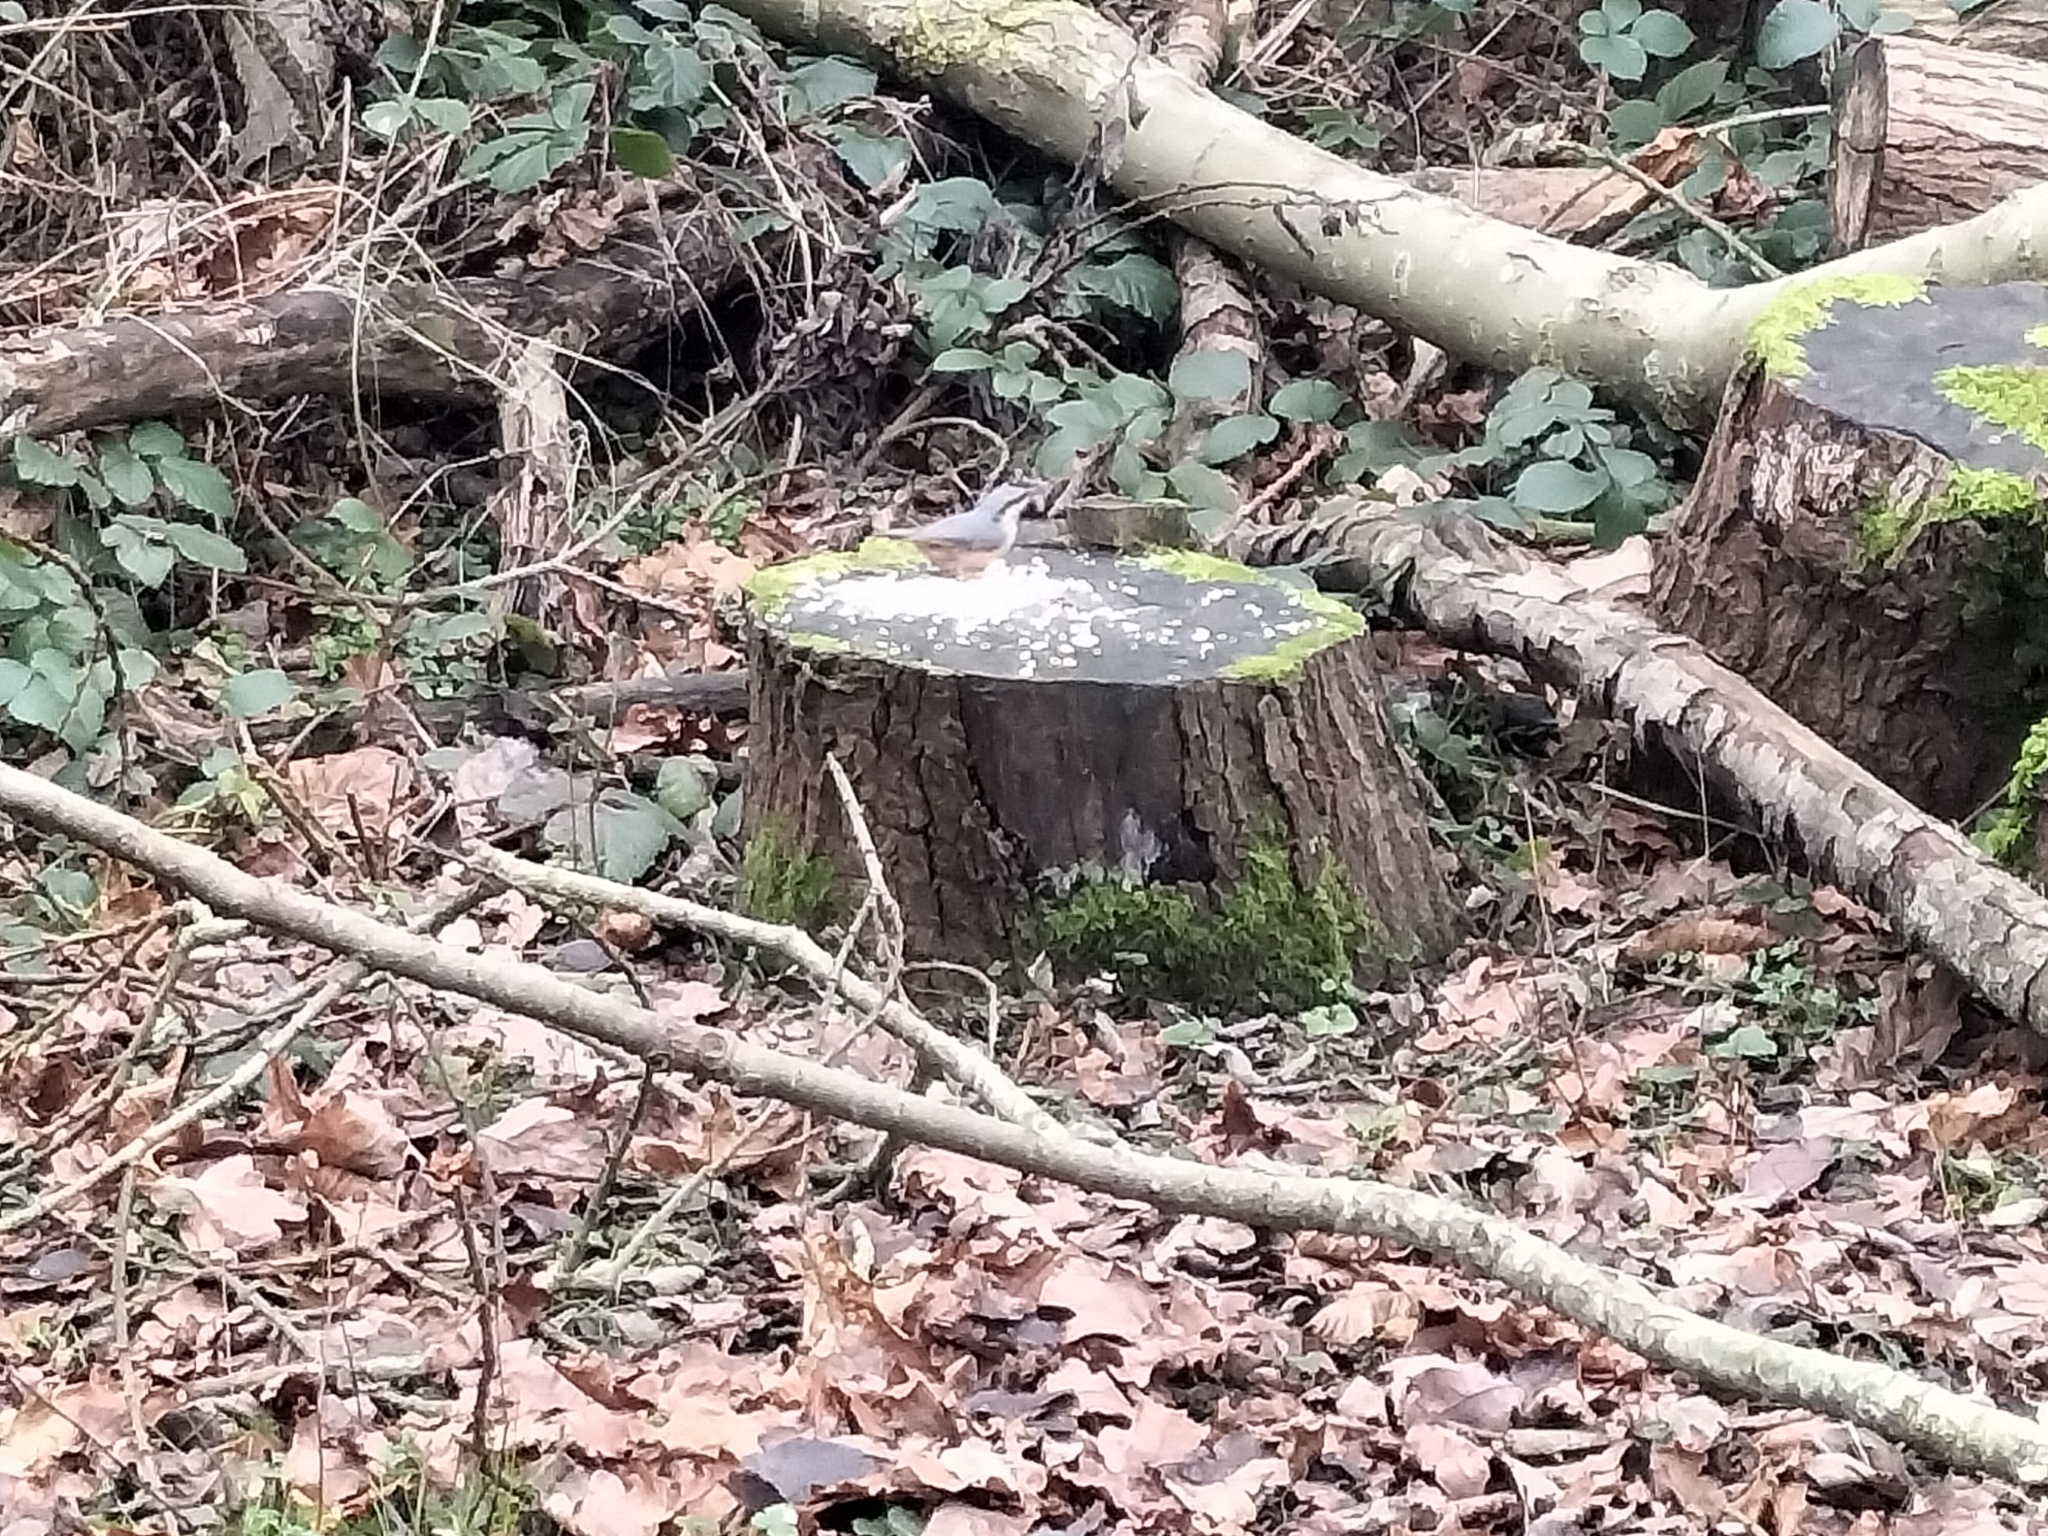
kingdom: Animalia
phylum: Chordata
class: Aves
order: Passeriformes
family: Sittidae
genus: Sitta
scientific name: Sitta europaea
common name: Eurasian nuthatch
